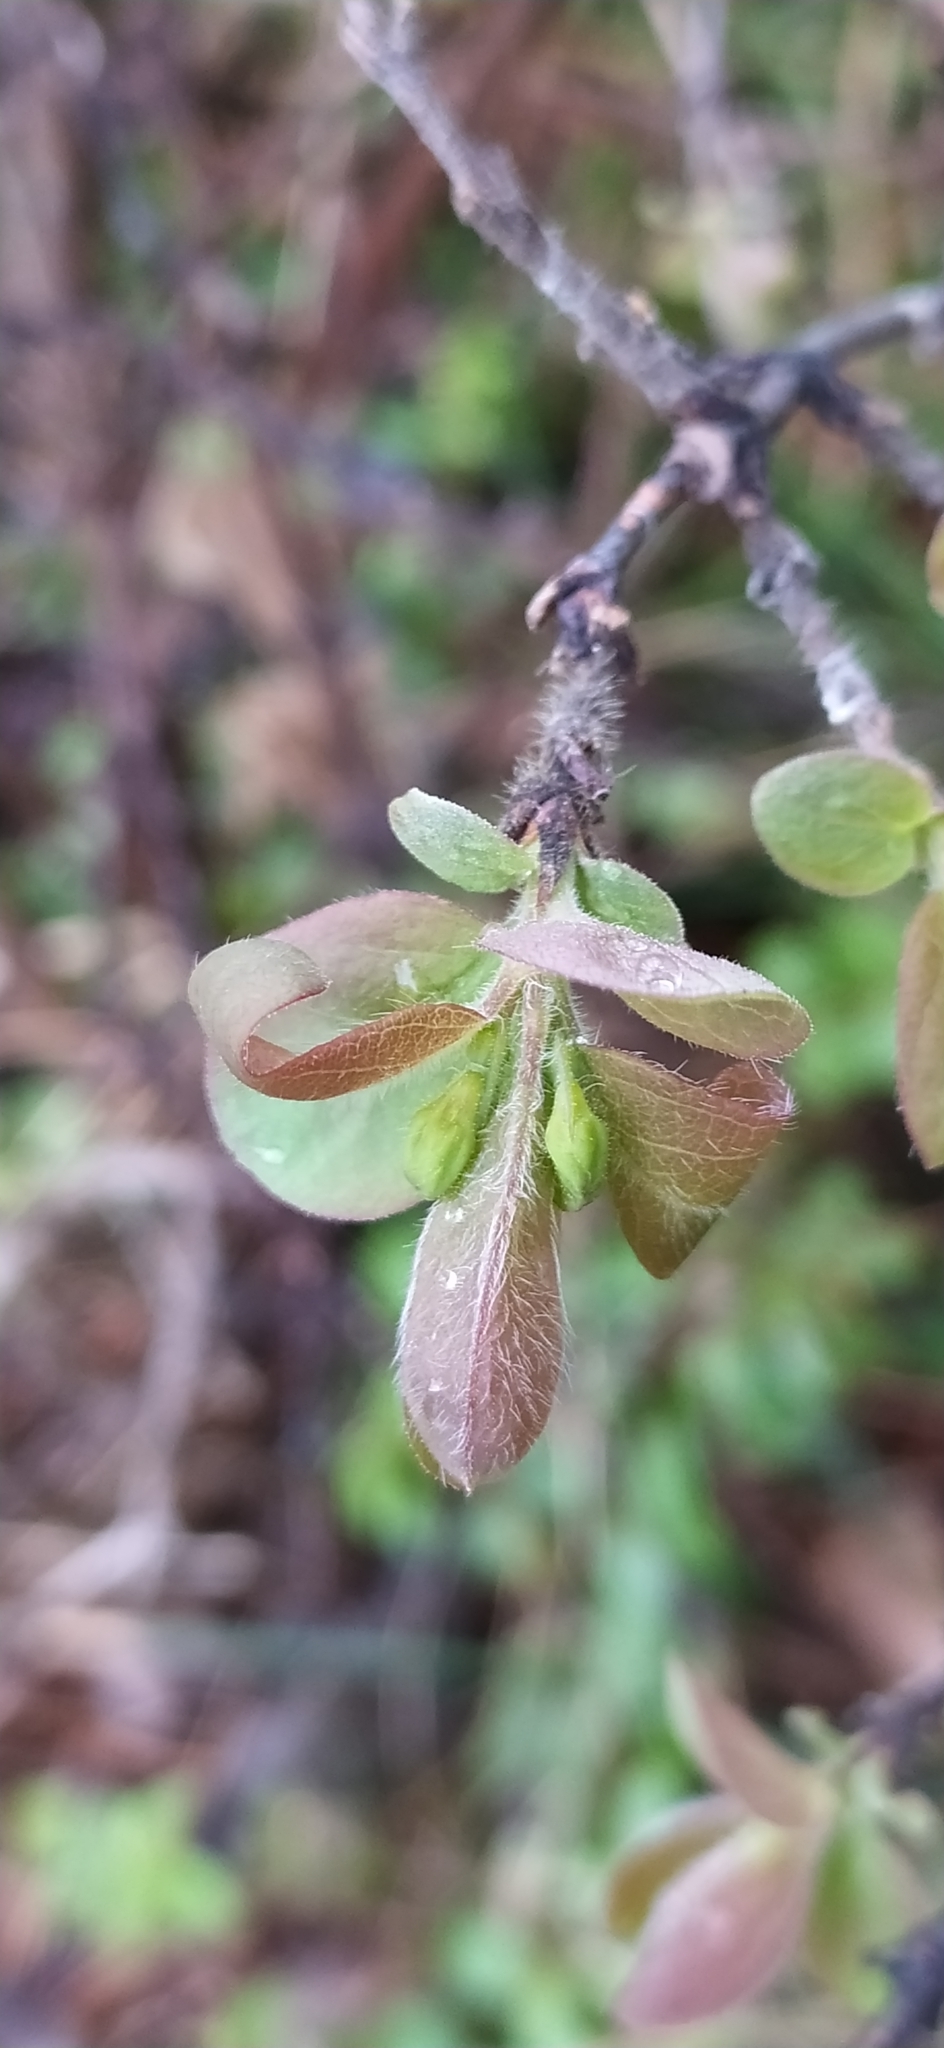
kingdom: Plantae
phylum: Tracheophyta
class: Magnoliopsida
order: Dipsacales
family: Caprifoliaceae
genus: Lonicera
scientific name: Lonicera caerulea
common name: Blue honeysuckle
